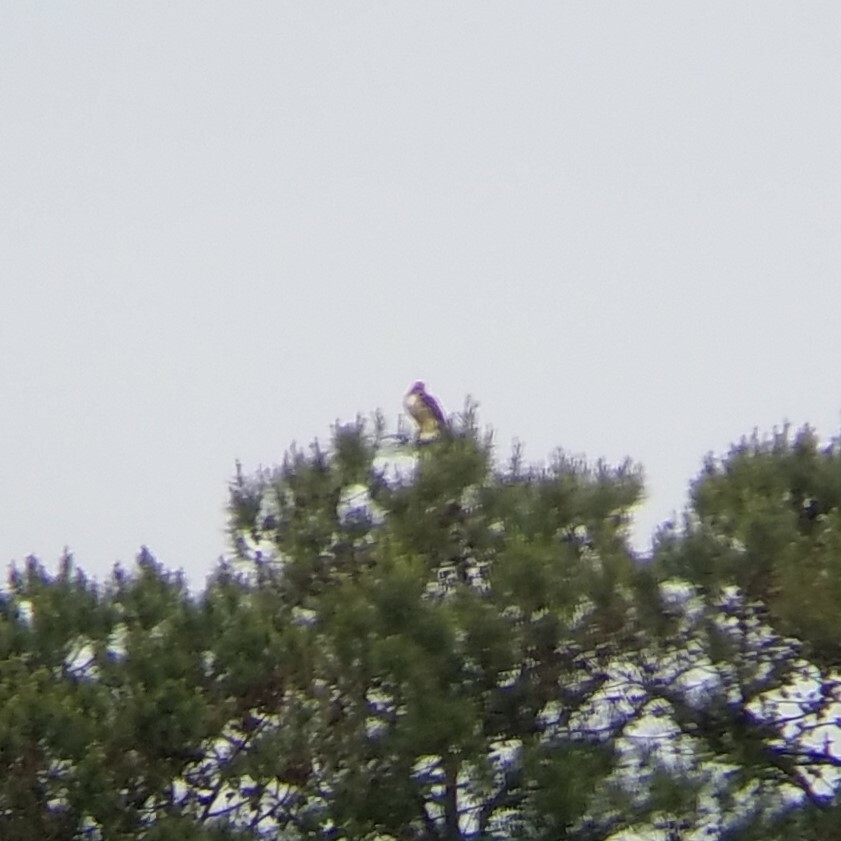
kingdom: Animalia
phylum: Chordata
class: Aves
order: Accipitriformes
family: Accipitridae
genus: Buteo
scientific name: Buteo jamaicensis
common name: Red-tailed hawk
